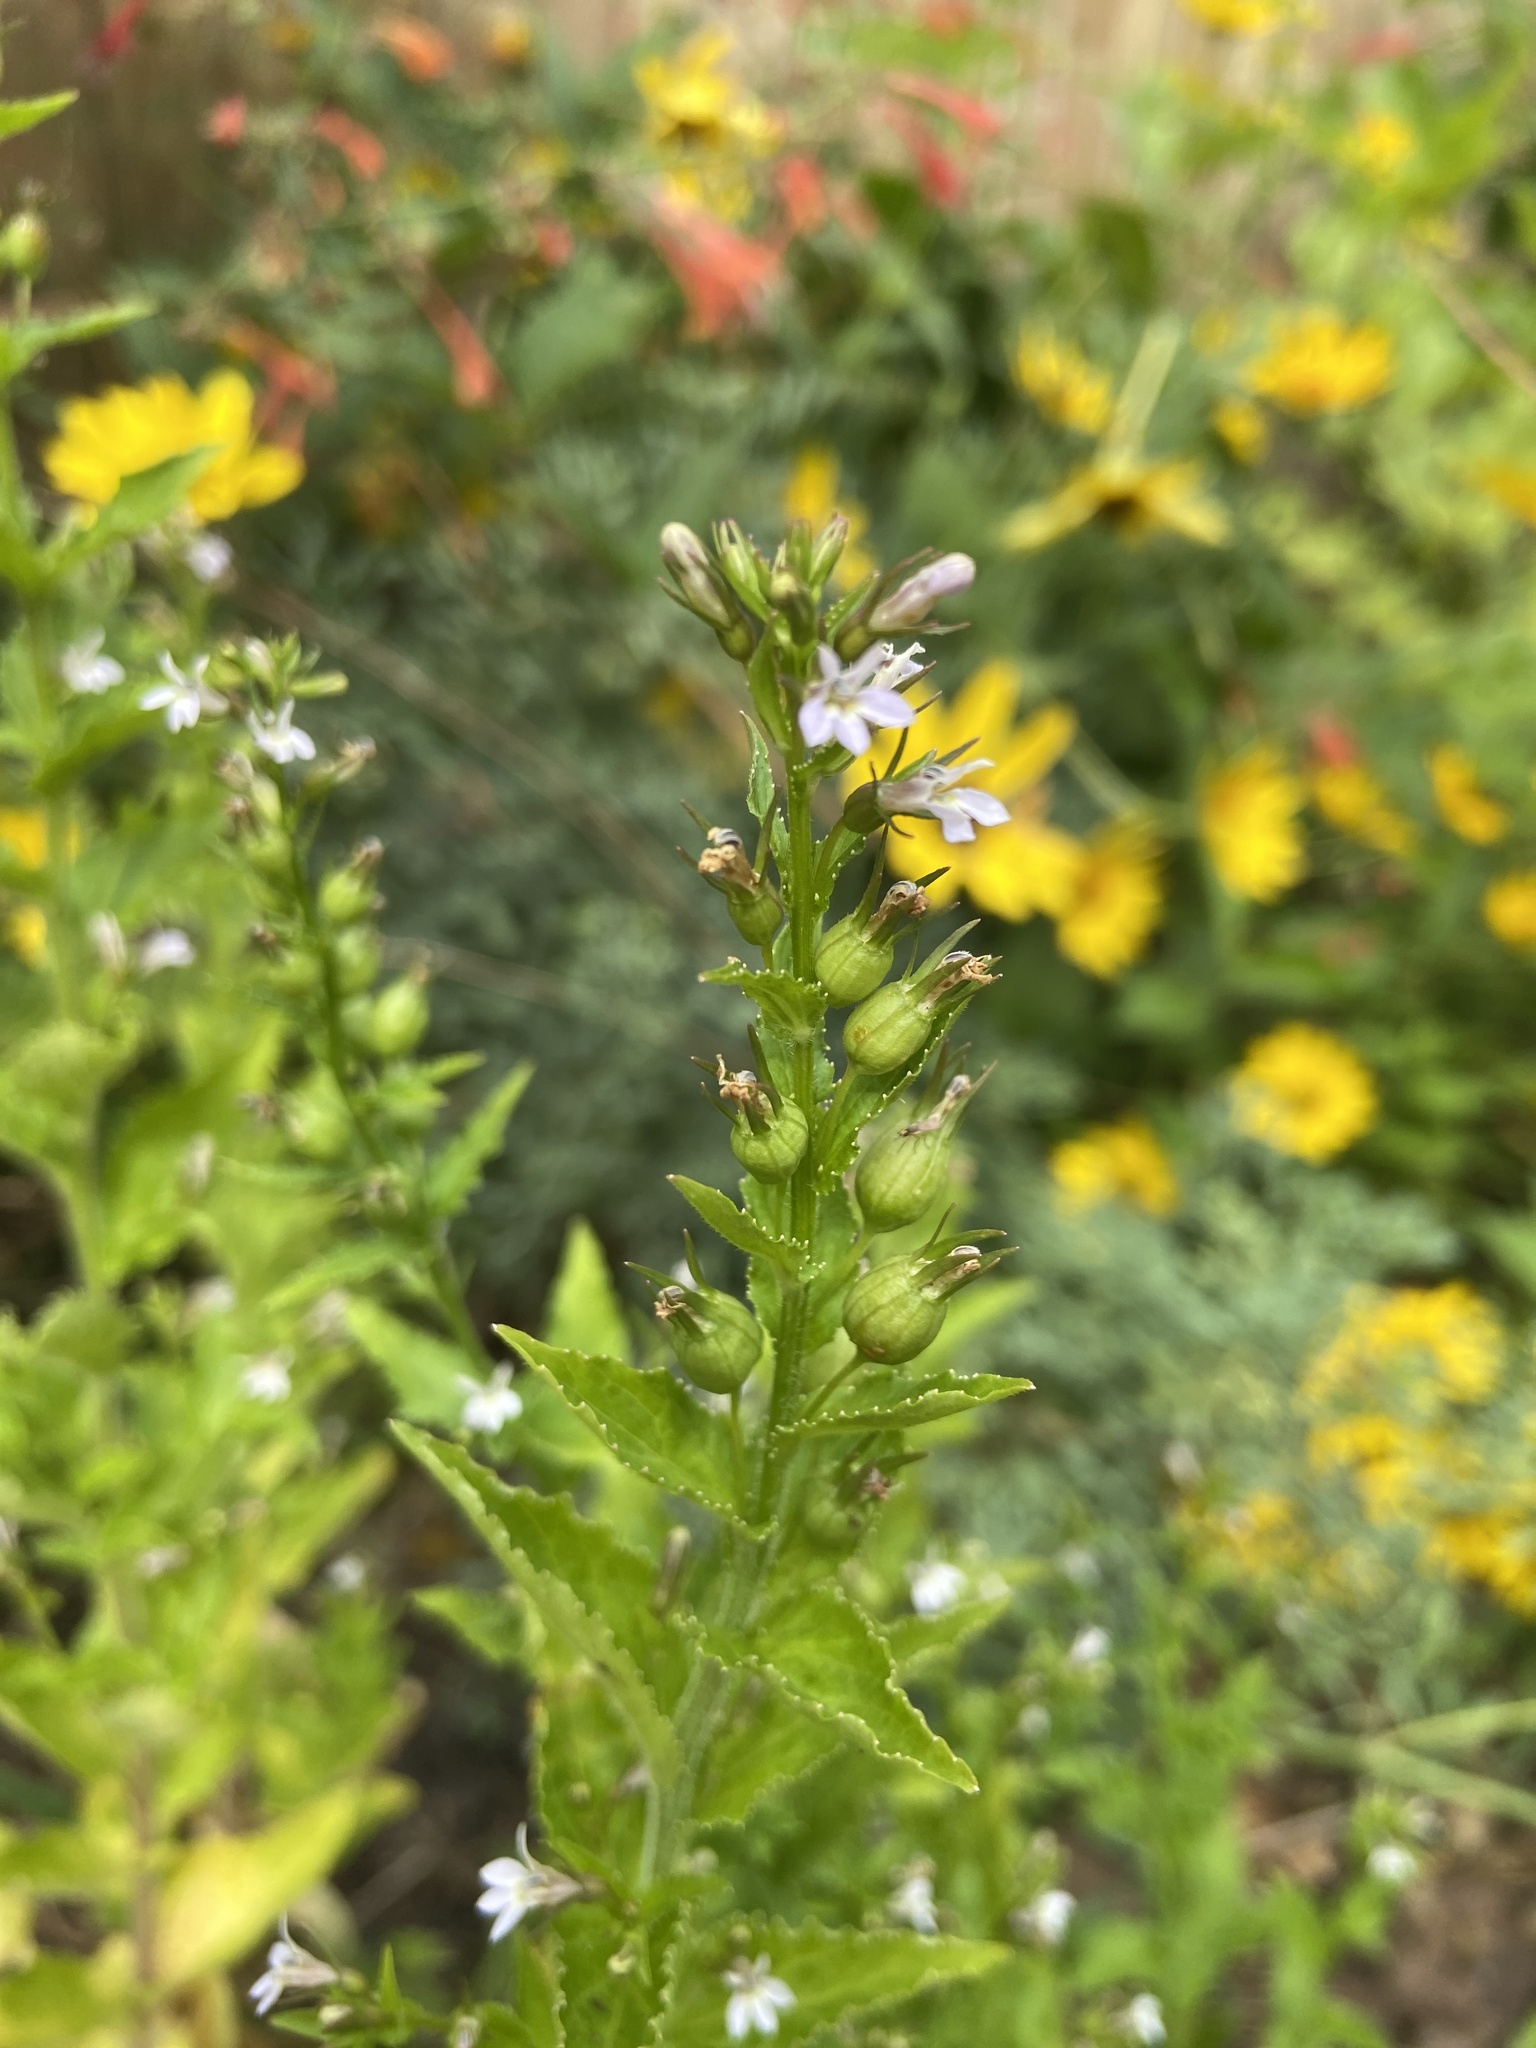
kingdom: Plantae
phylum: Tracheophyta
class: Magnoliopsida
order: Asterales
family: Campanulaceae
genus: Lobelia
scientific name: Lobelia inflata
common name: Indian tobacco
